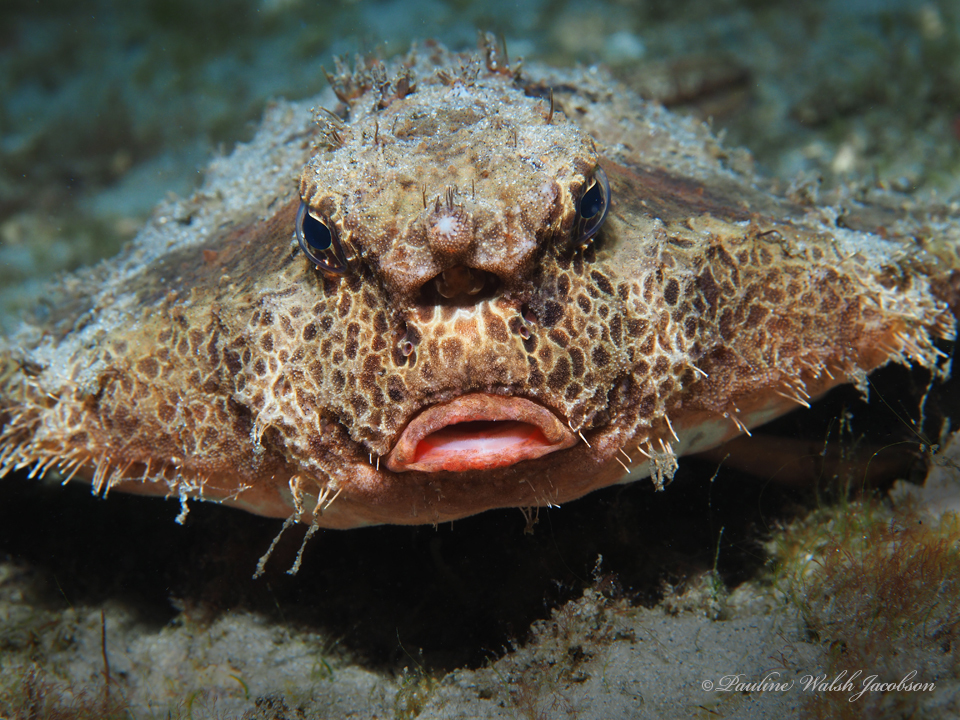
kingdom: Animalia
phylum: Chordata
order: Lophiiformes
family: Ogcocephalidae
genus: Ogcocephalus
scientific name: Ogcocephalus cubifrons
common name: Polka-dot batfish
